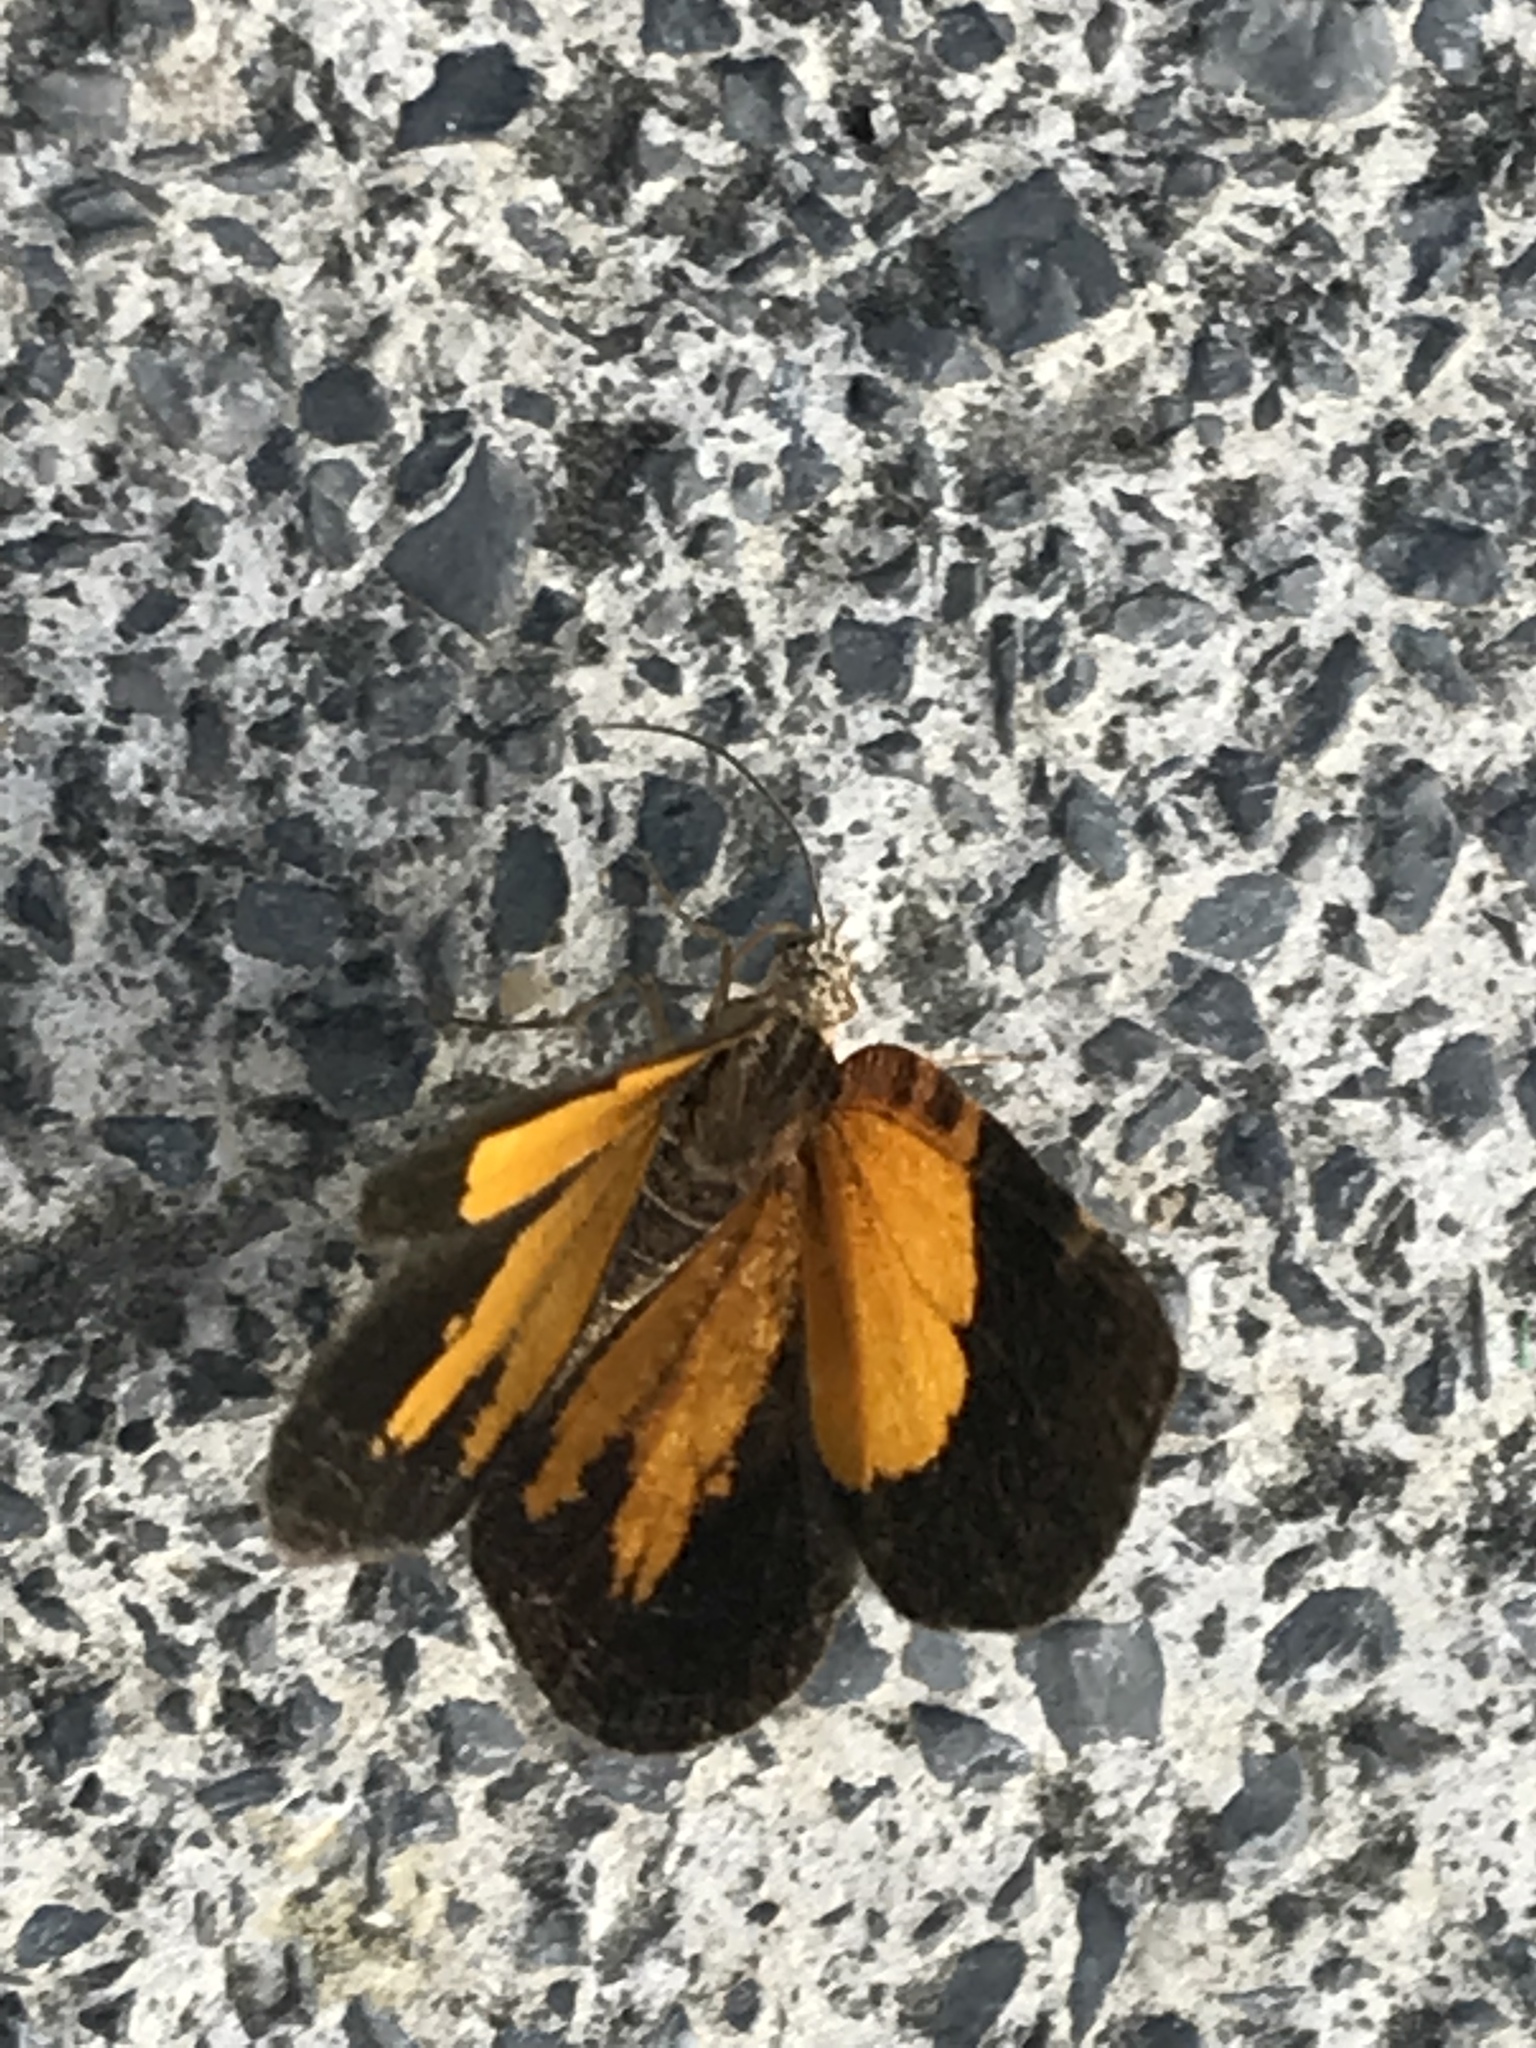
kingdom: Animalia
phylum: Arthropoda
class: Insecta
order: Lepidoptera
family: Geometridae
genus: Heterusia
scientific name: Heterusia atalantata
